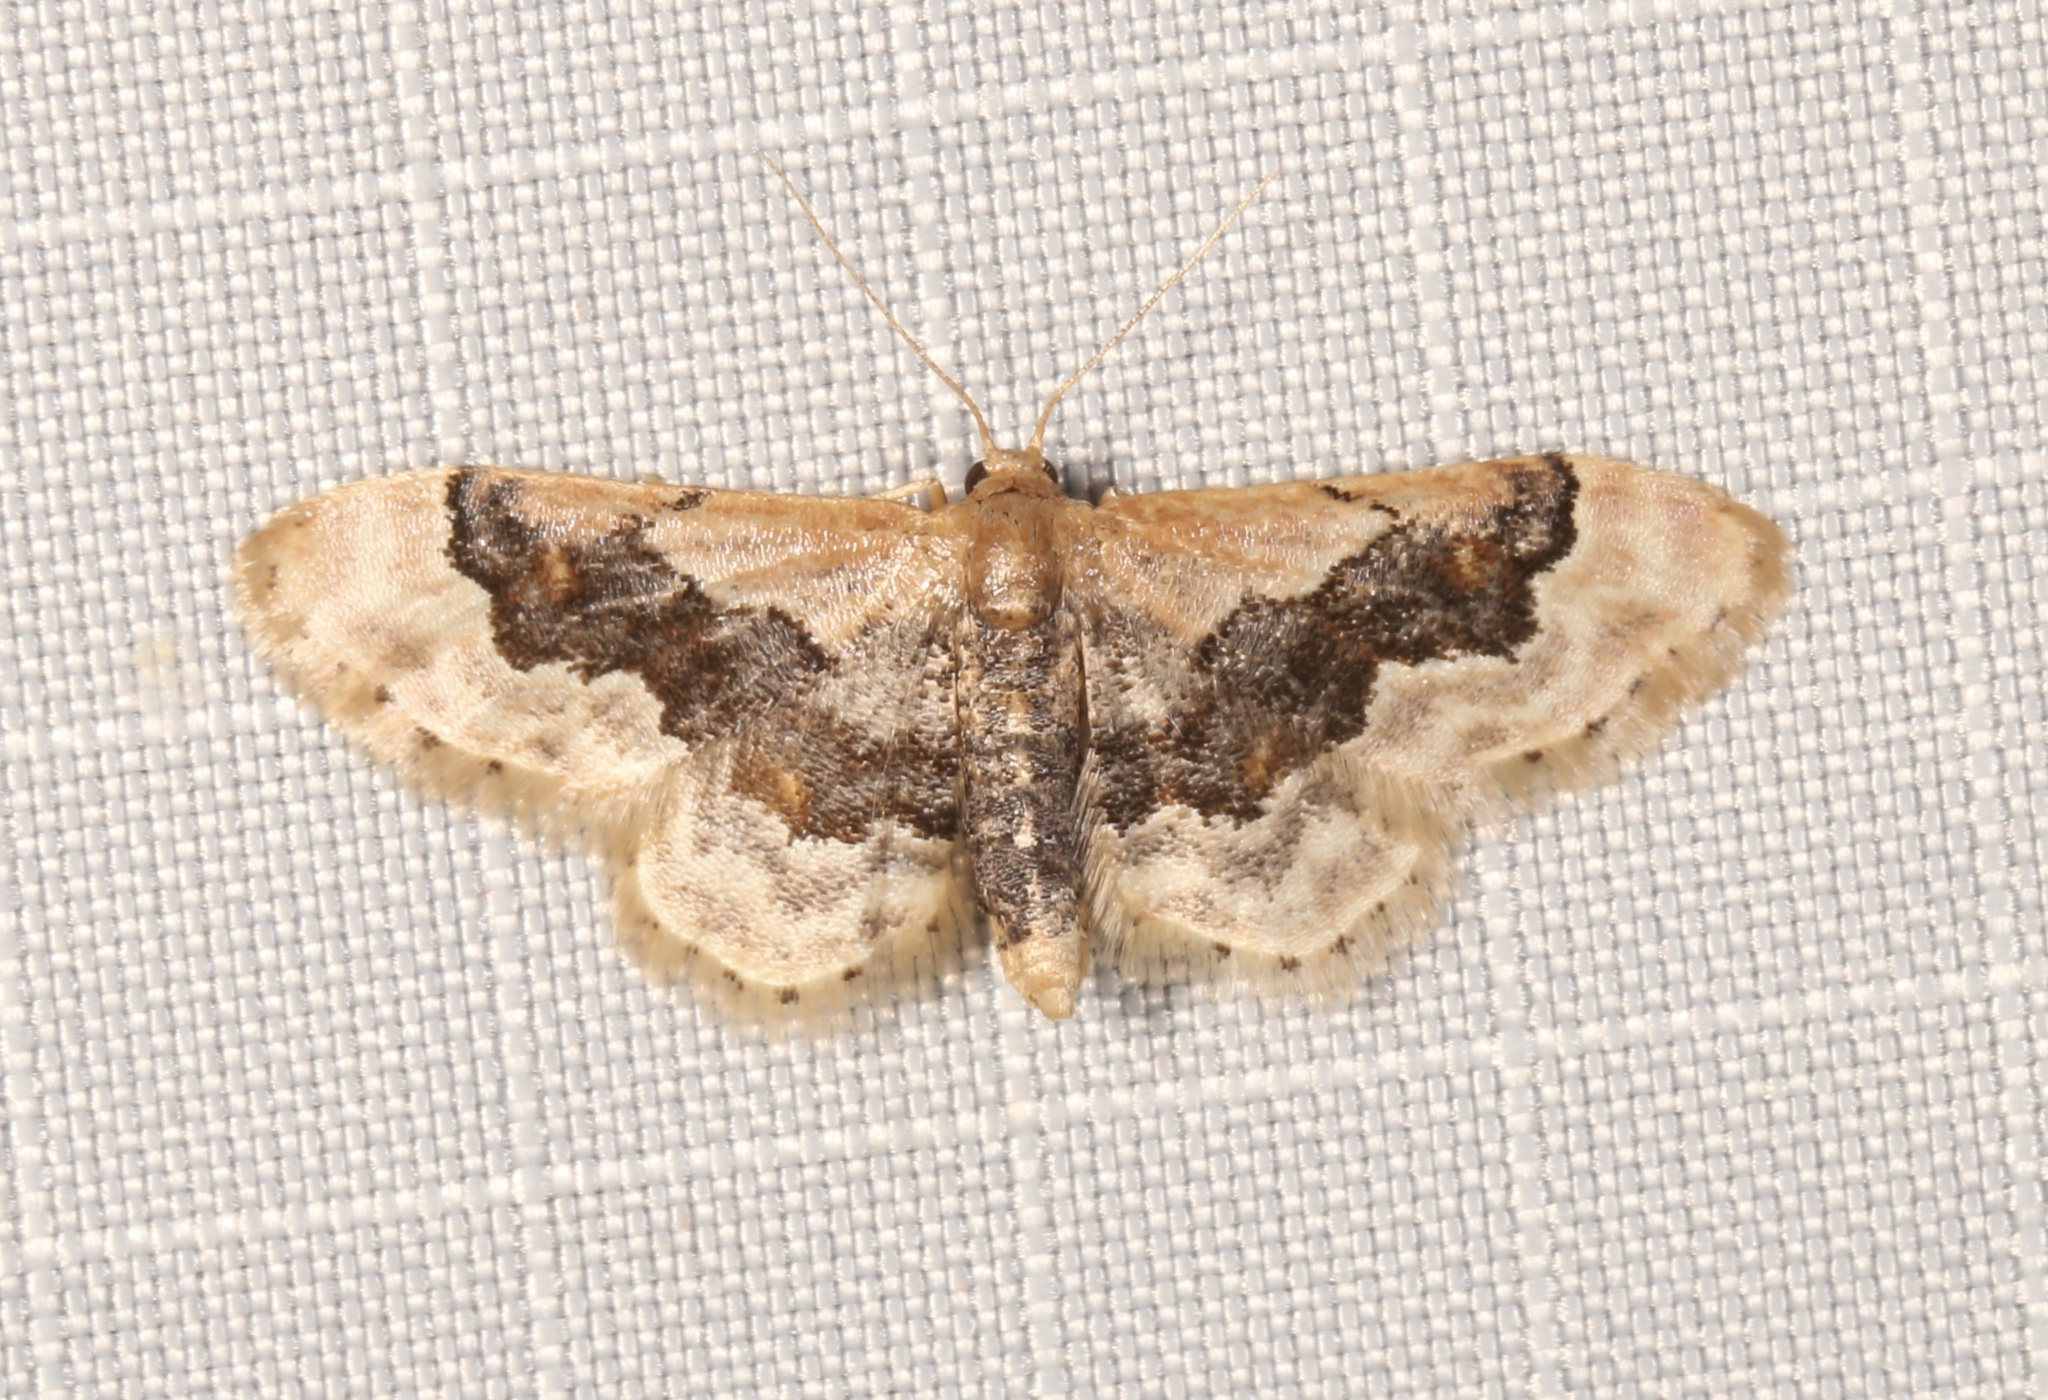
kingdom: Animalia
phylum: Arthropoda
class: Insecta
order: Lepidoptera
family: Geometridae
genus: Idaea
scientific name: Idaea gemmata
